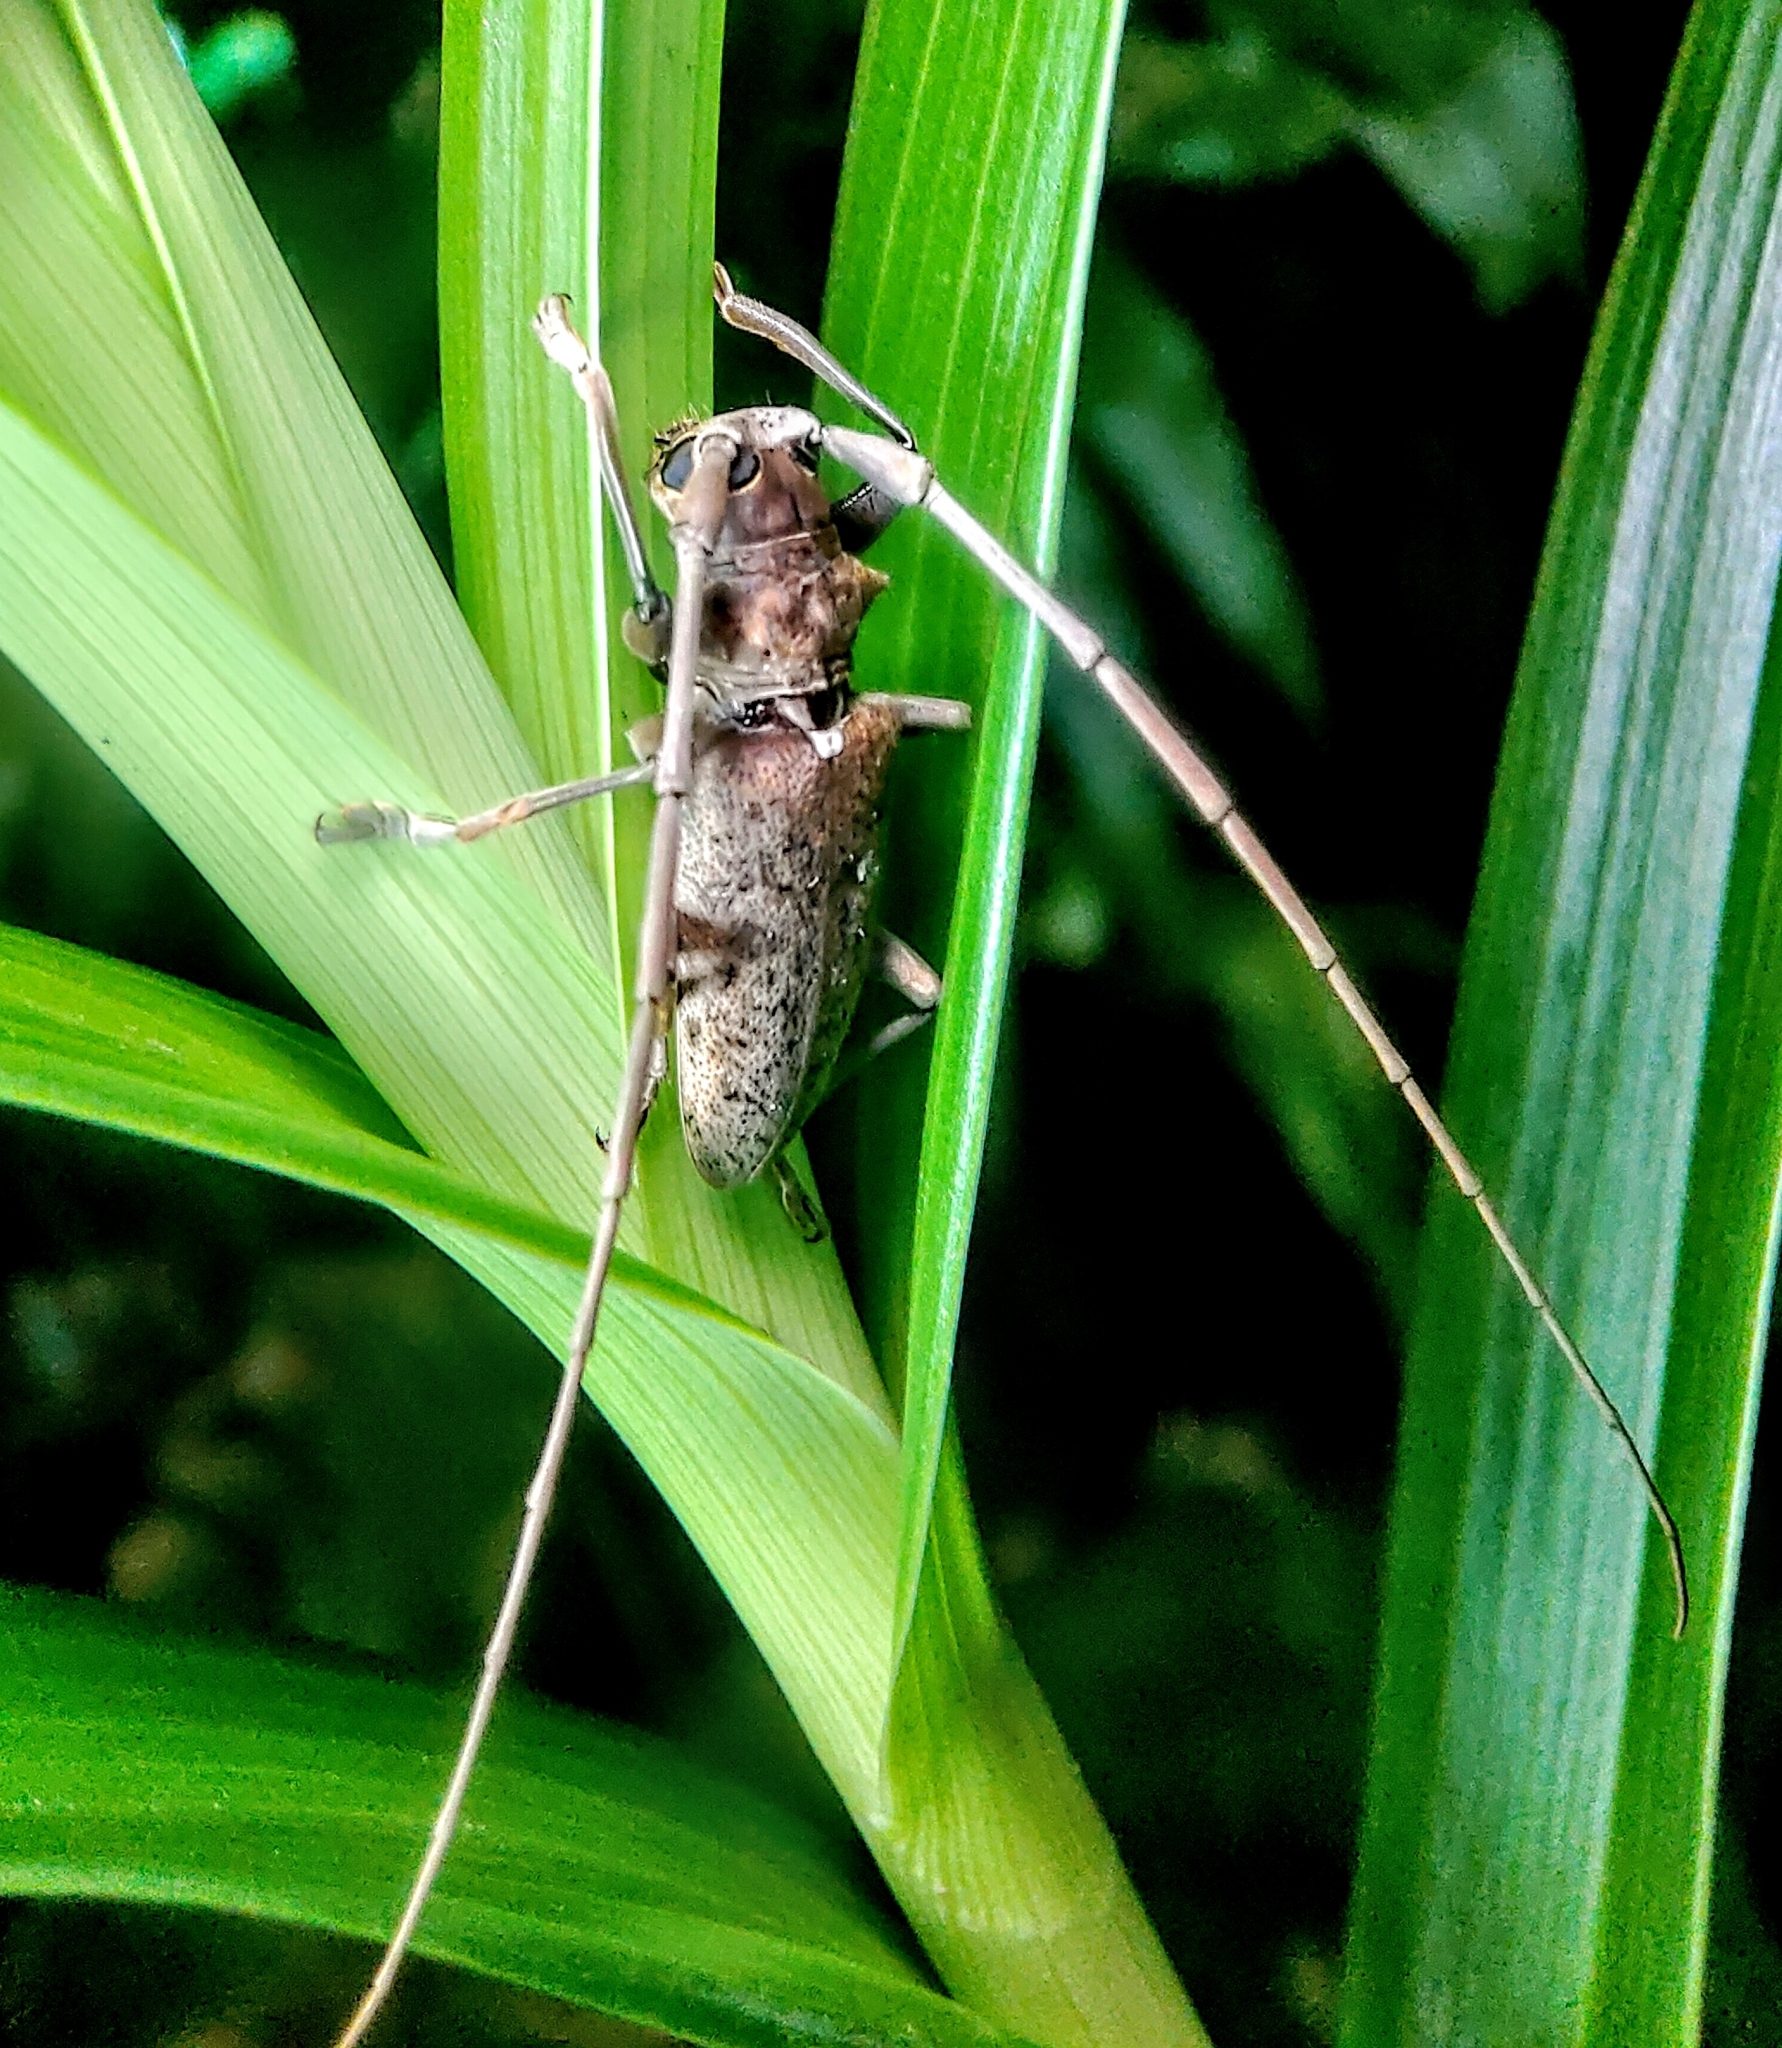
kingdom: Animalia
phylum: Arthropoda
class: Insecta
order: Coleoptera
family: Cerambycidae
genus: Acalolepta
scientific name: Acalolepta rusticatrix
